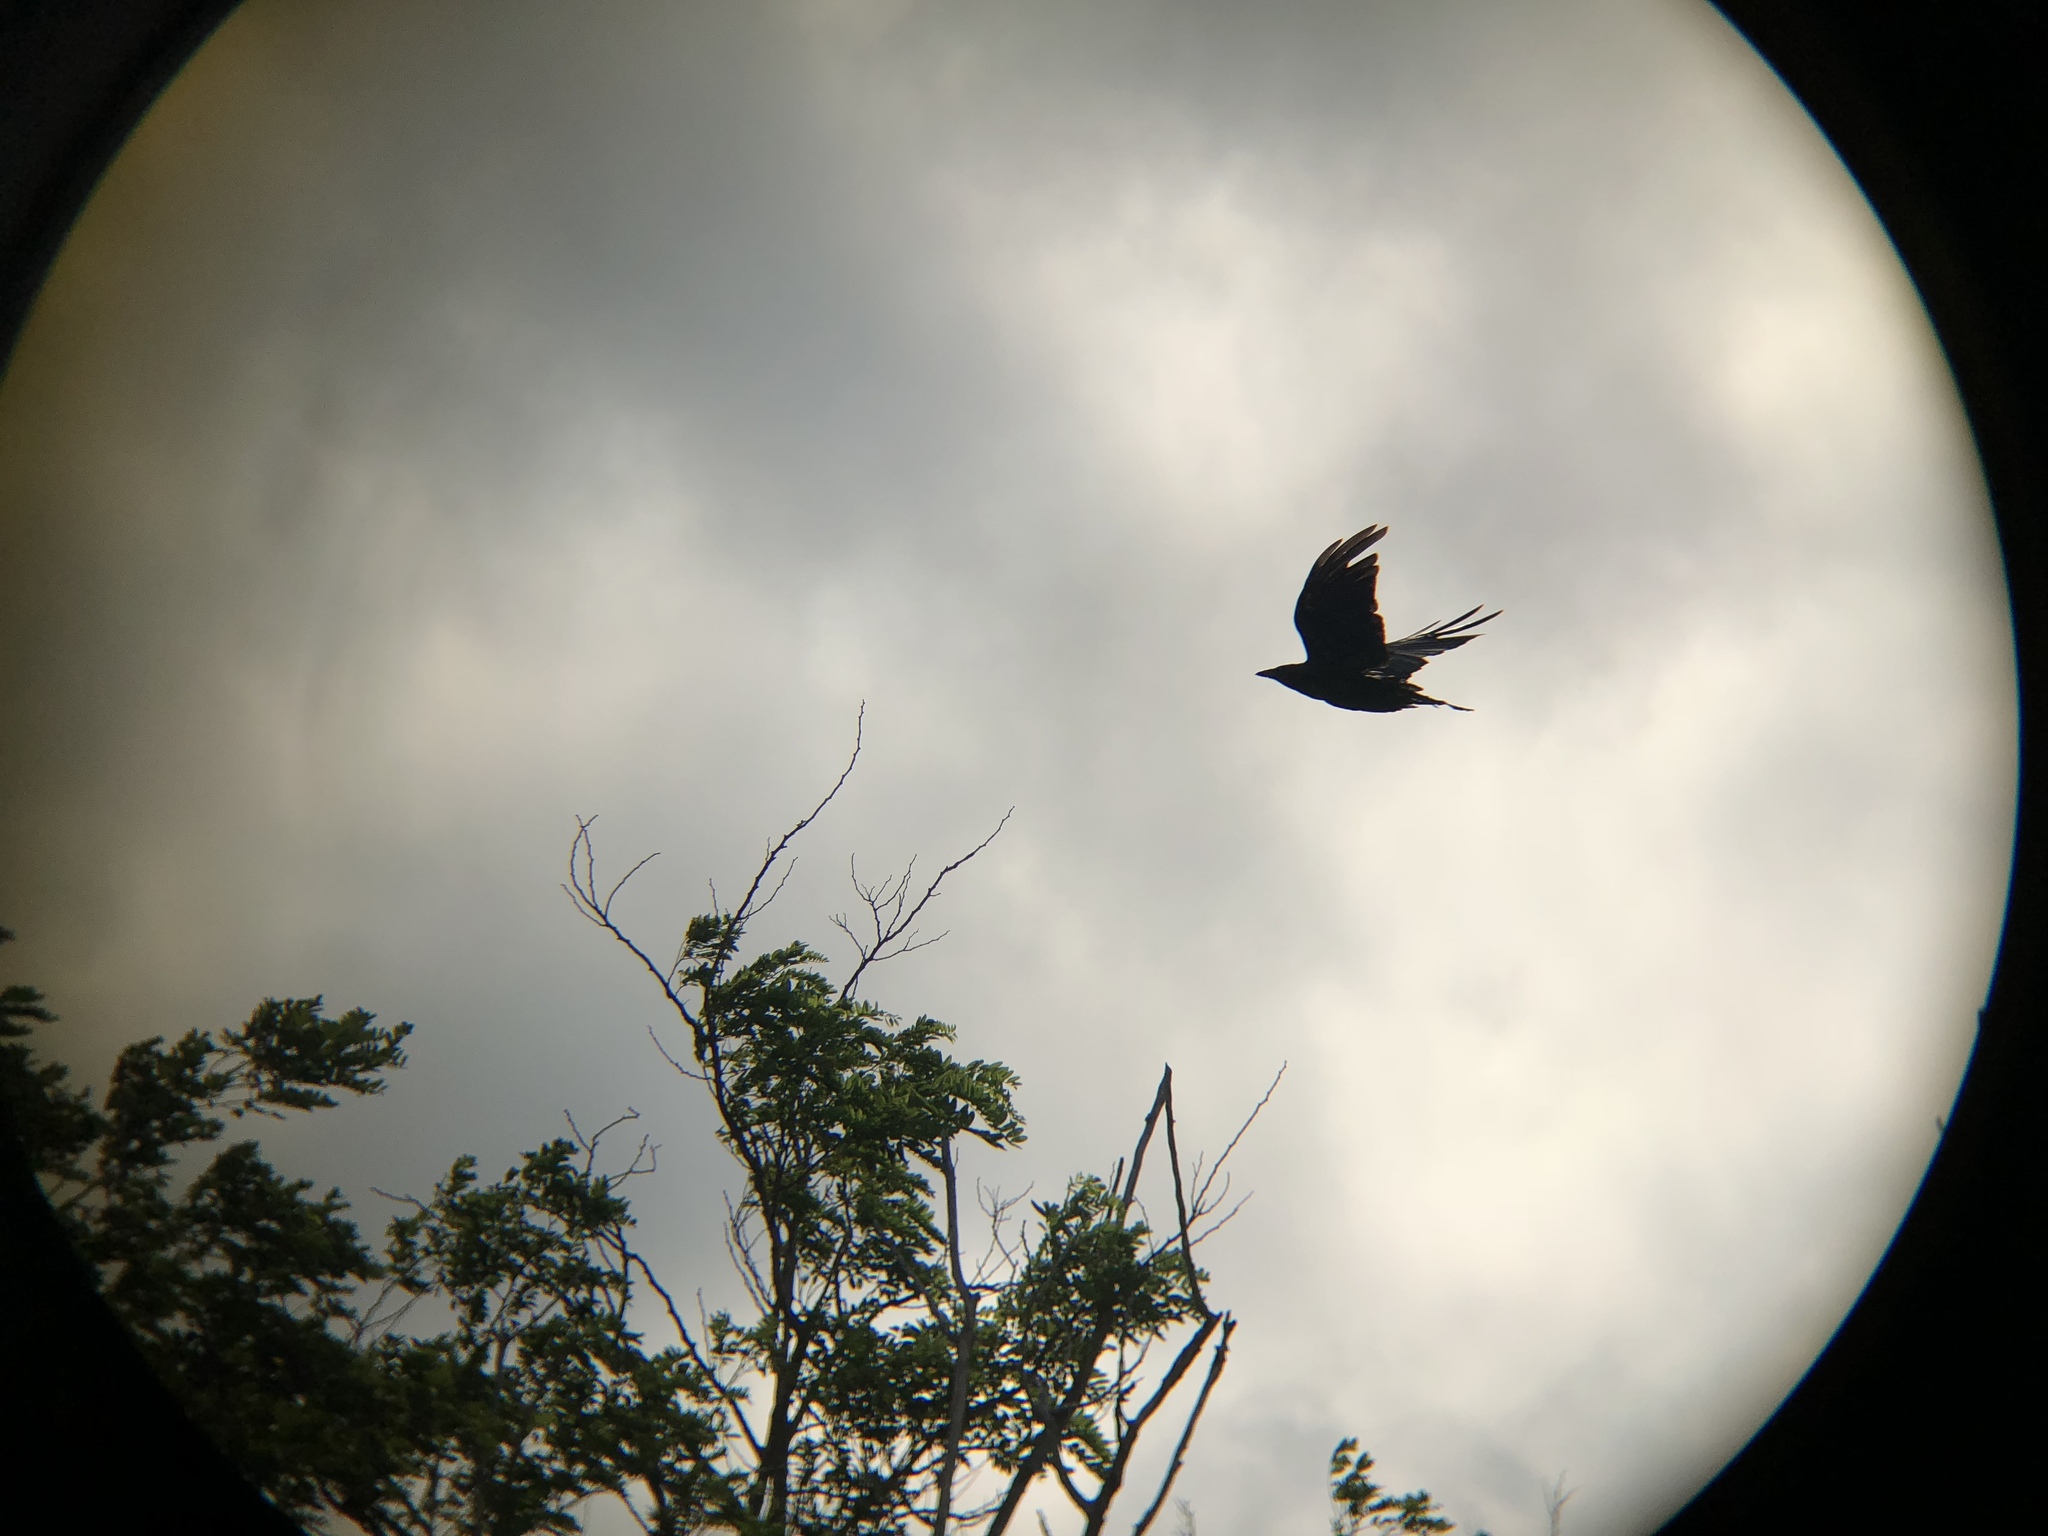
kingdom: Animalia
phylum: Chordata
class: Aves
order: Passeriformes
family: Corvidae
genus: Corvus
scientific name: Corvus brachyrhynchos
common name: American crow
